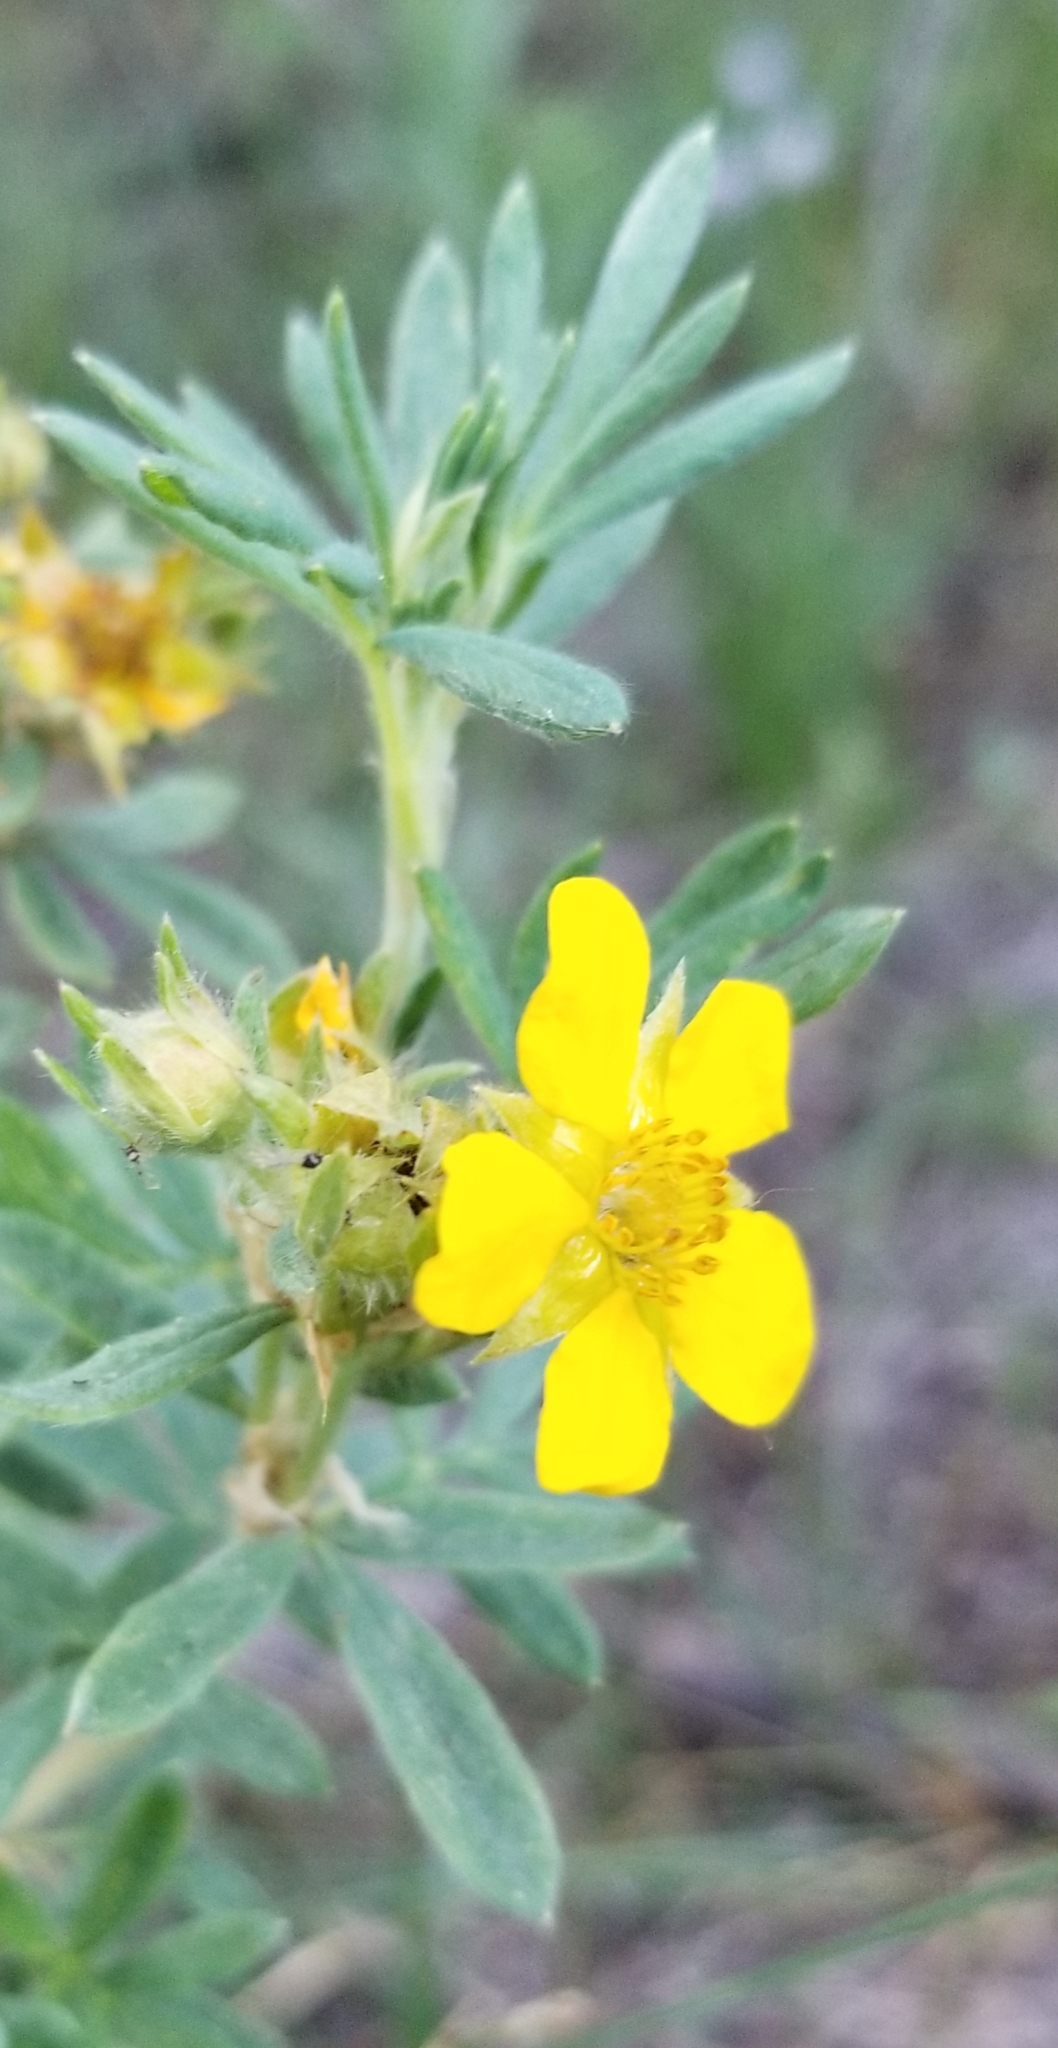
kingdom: Plantae
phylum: Tracheophyta
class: Magnoliopsida
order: Rosales
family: Rosaceae
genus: Dasiphora
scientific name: Dasiphora fruticosa
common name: Shrubby cinquefoil
